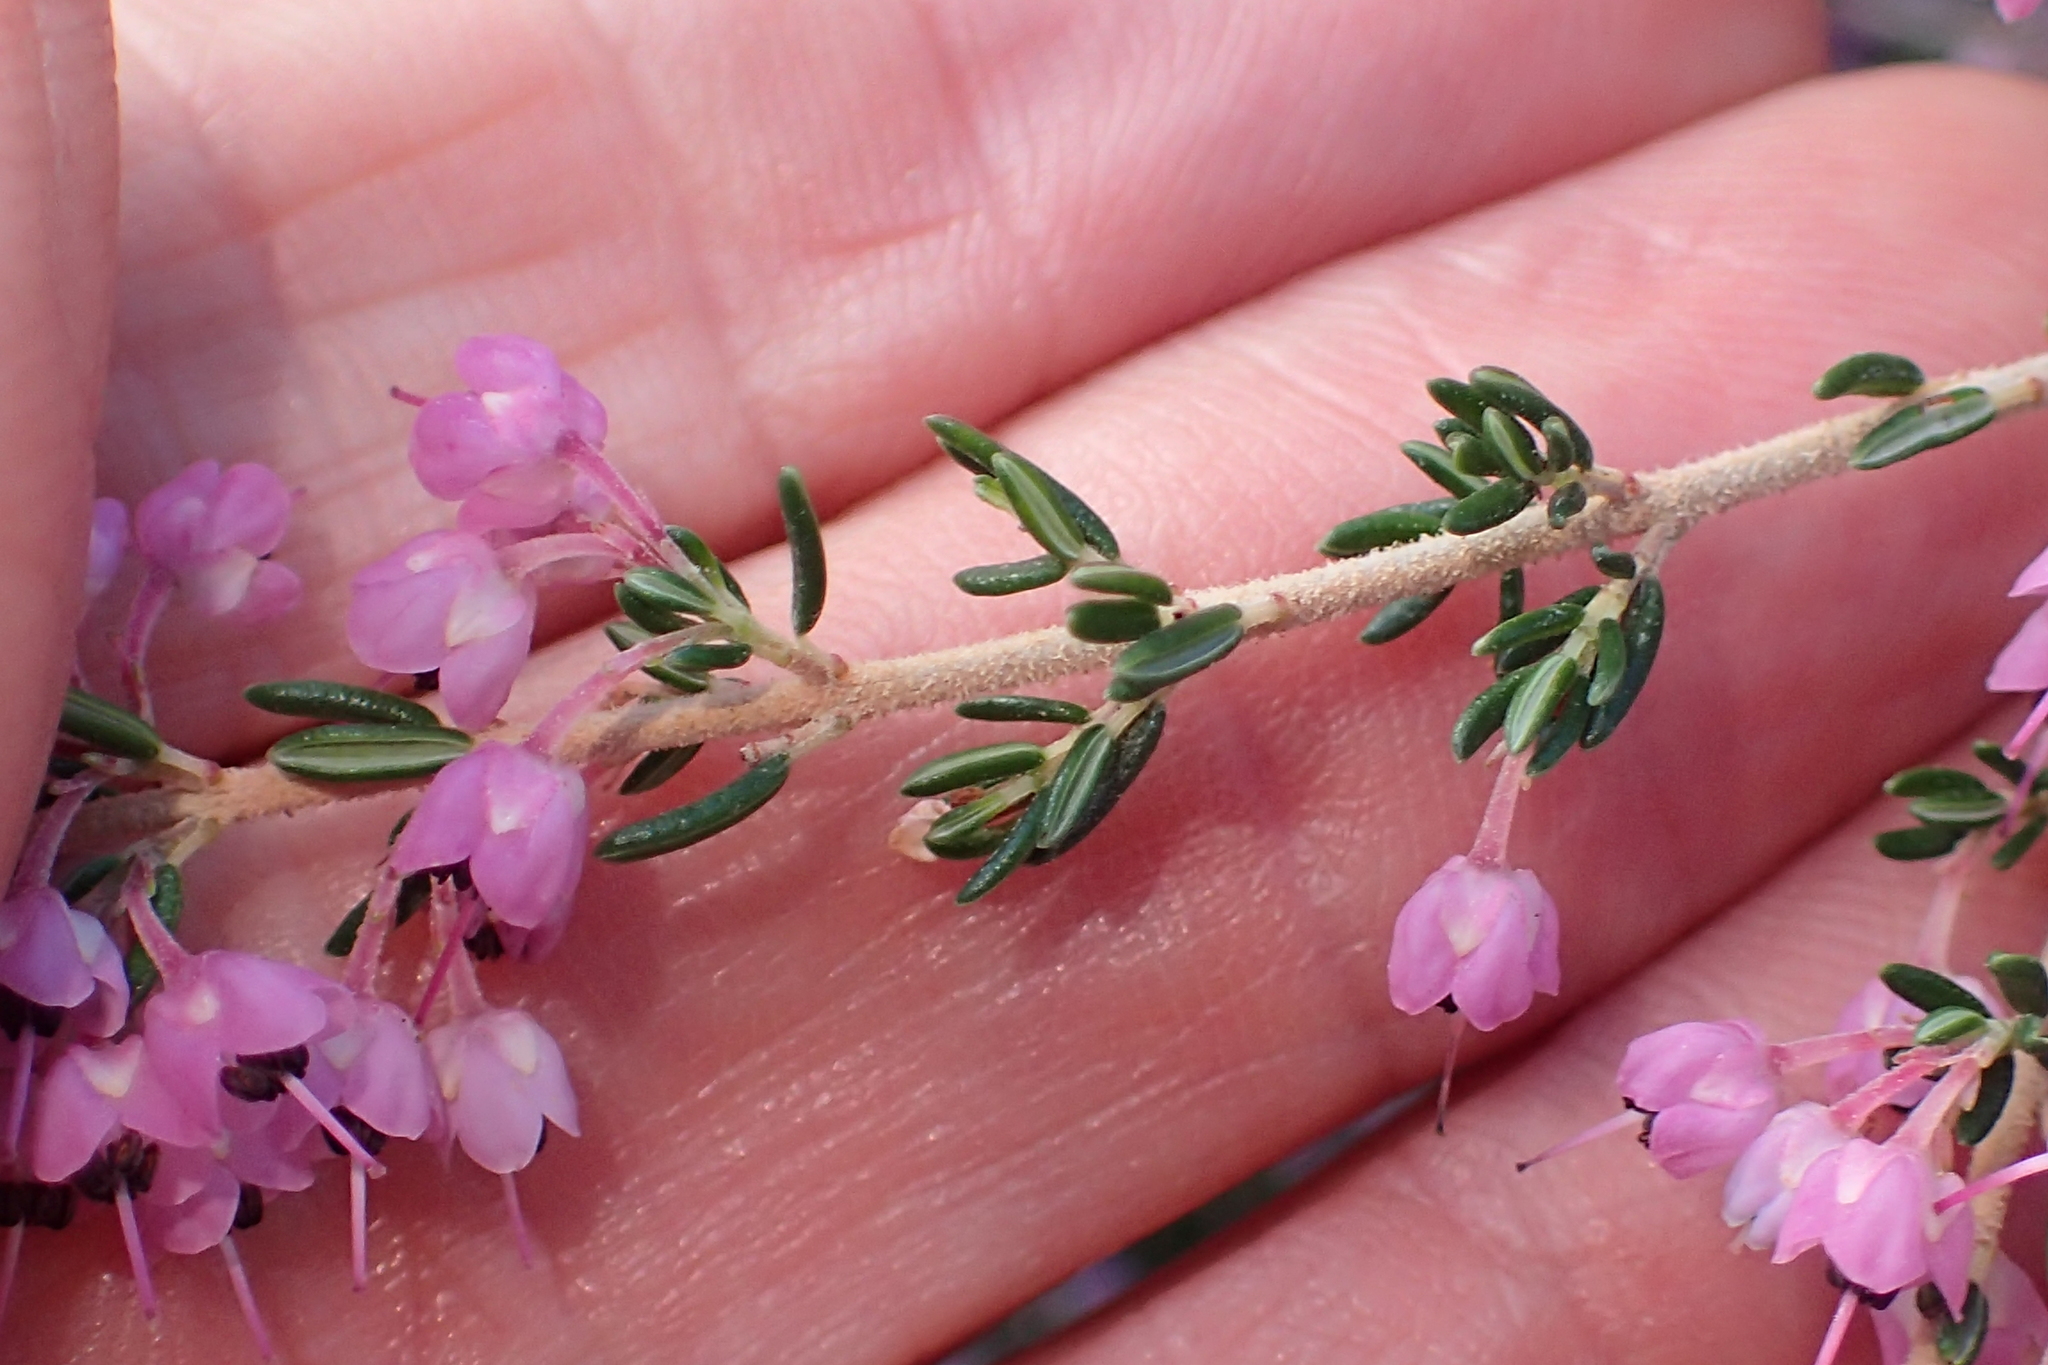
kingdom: Plantae
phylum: Tracheophyta
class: Magnoliopsida
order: Ericales
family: Ericaceae
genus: Erica
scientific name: Erica canaliculata
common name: Hairy grey heather
